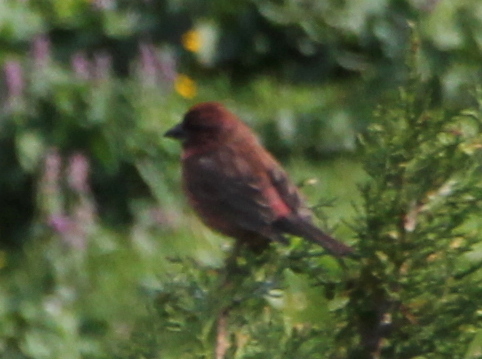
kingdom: Animalia
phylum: Chordata
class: Aves
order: Passeriformes
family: Fringillidae
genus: Carpodacus
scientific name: Carpodacus rhodochlamys
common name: Red-mantled rosefinch
